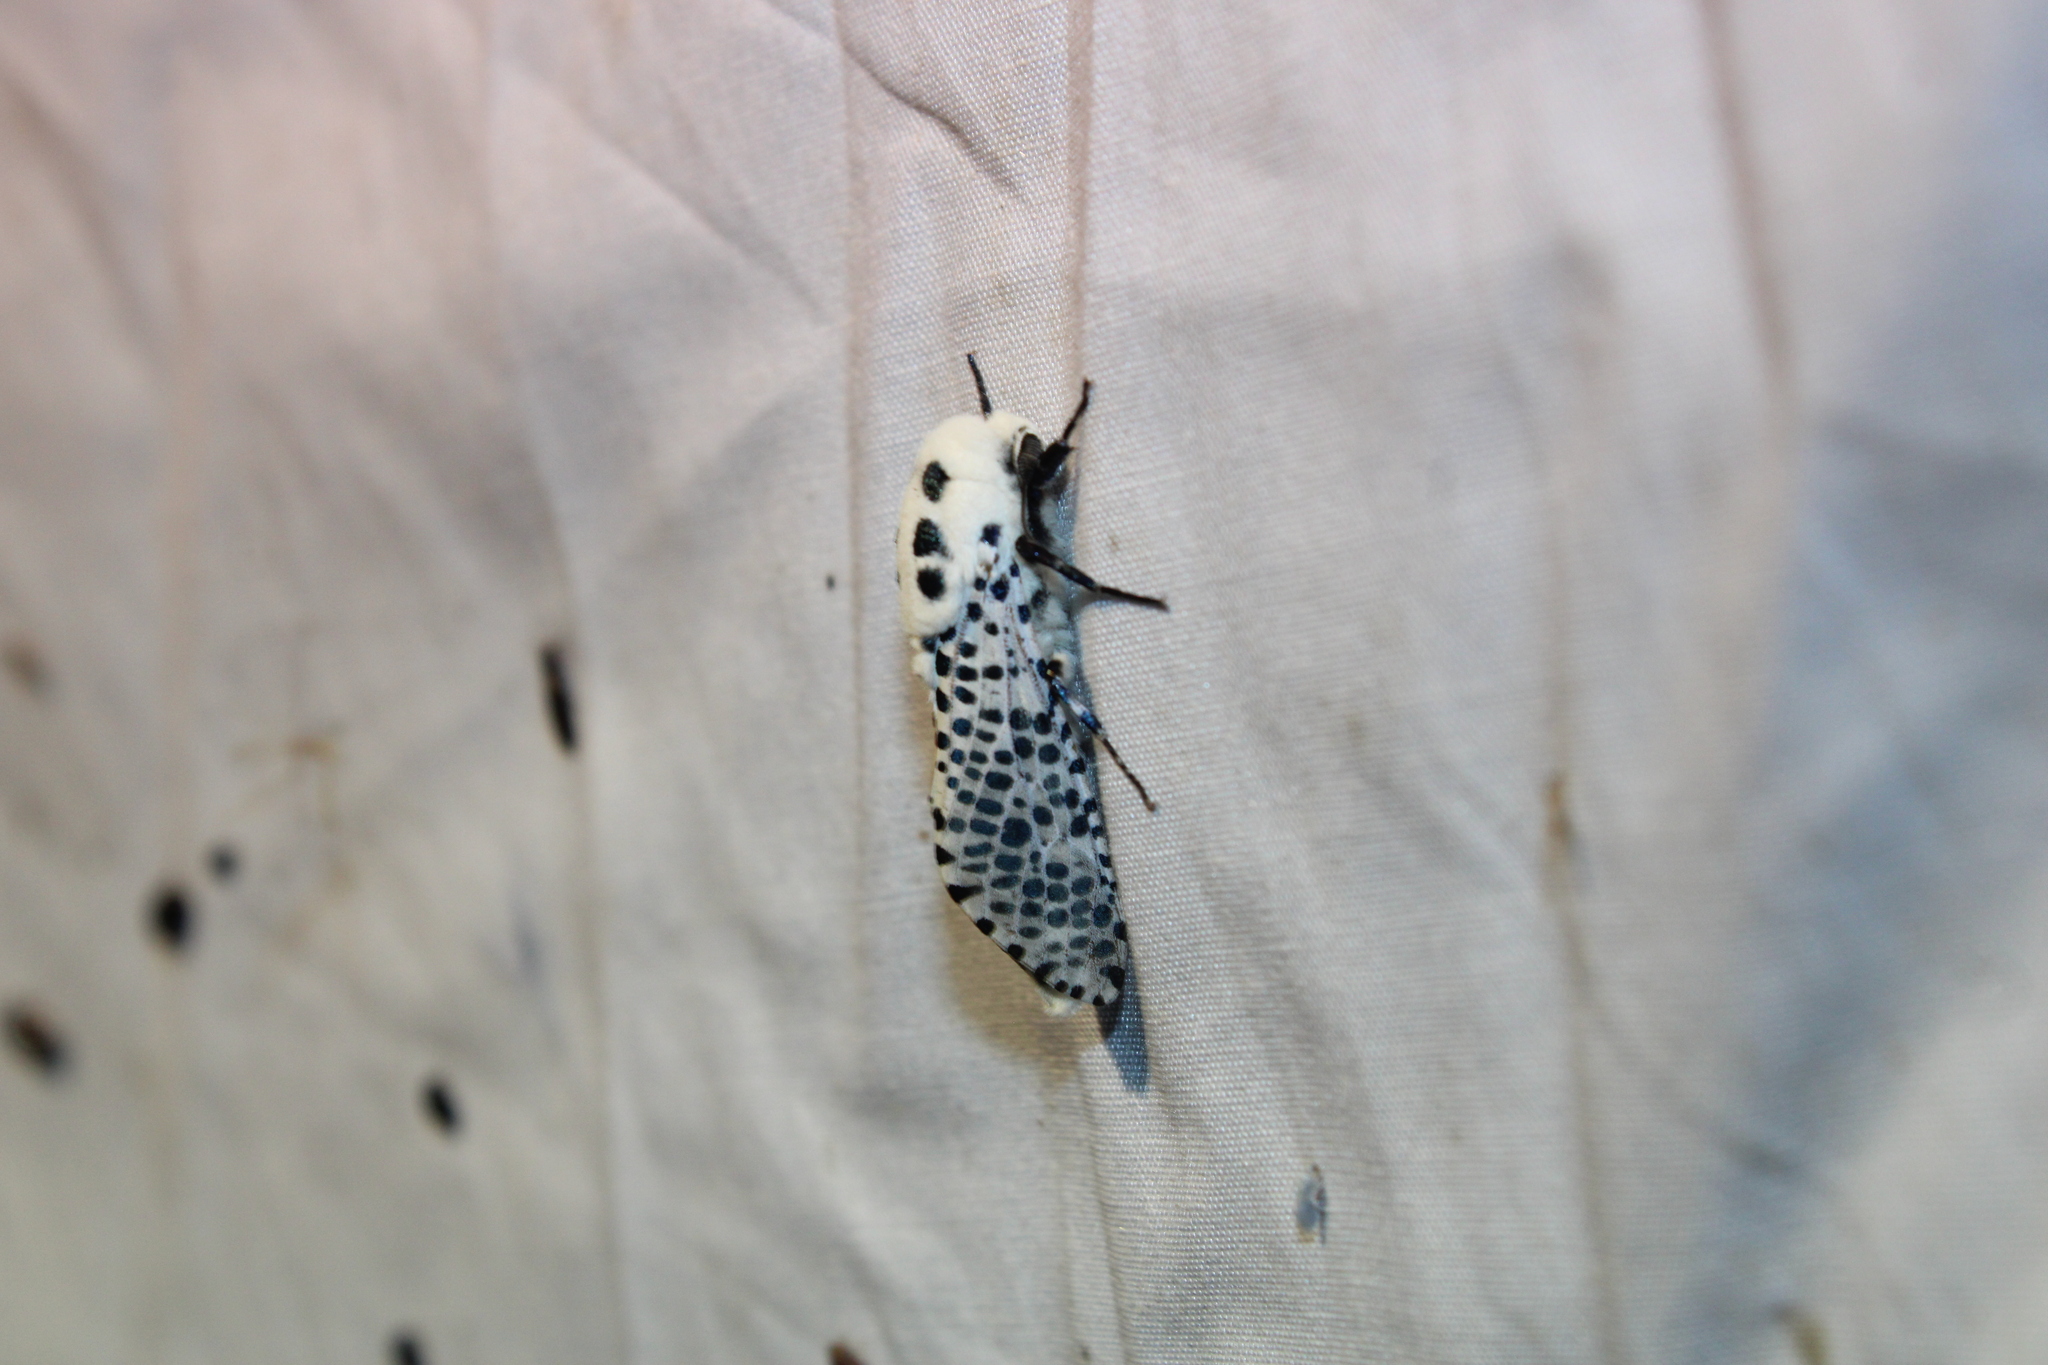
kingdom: Animalia
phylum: Arthropoda
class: Insecta
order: Lepidoptera
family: Cossidae
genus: Zeuzera
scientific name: Zeuzera pyrina
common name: Leopard moth
